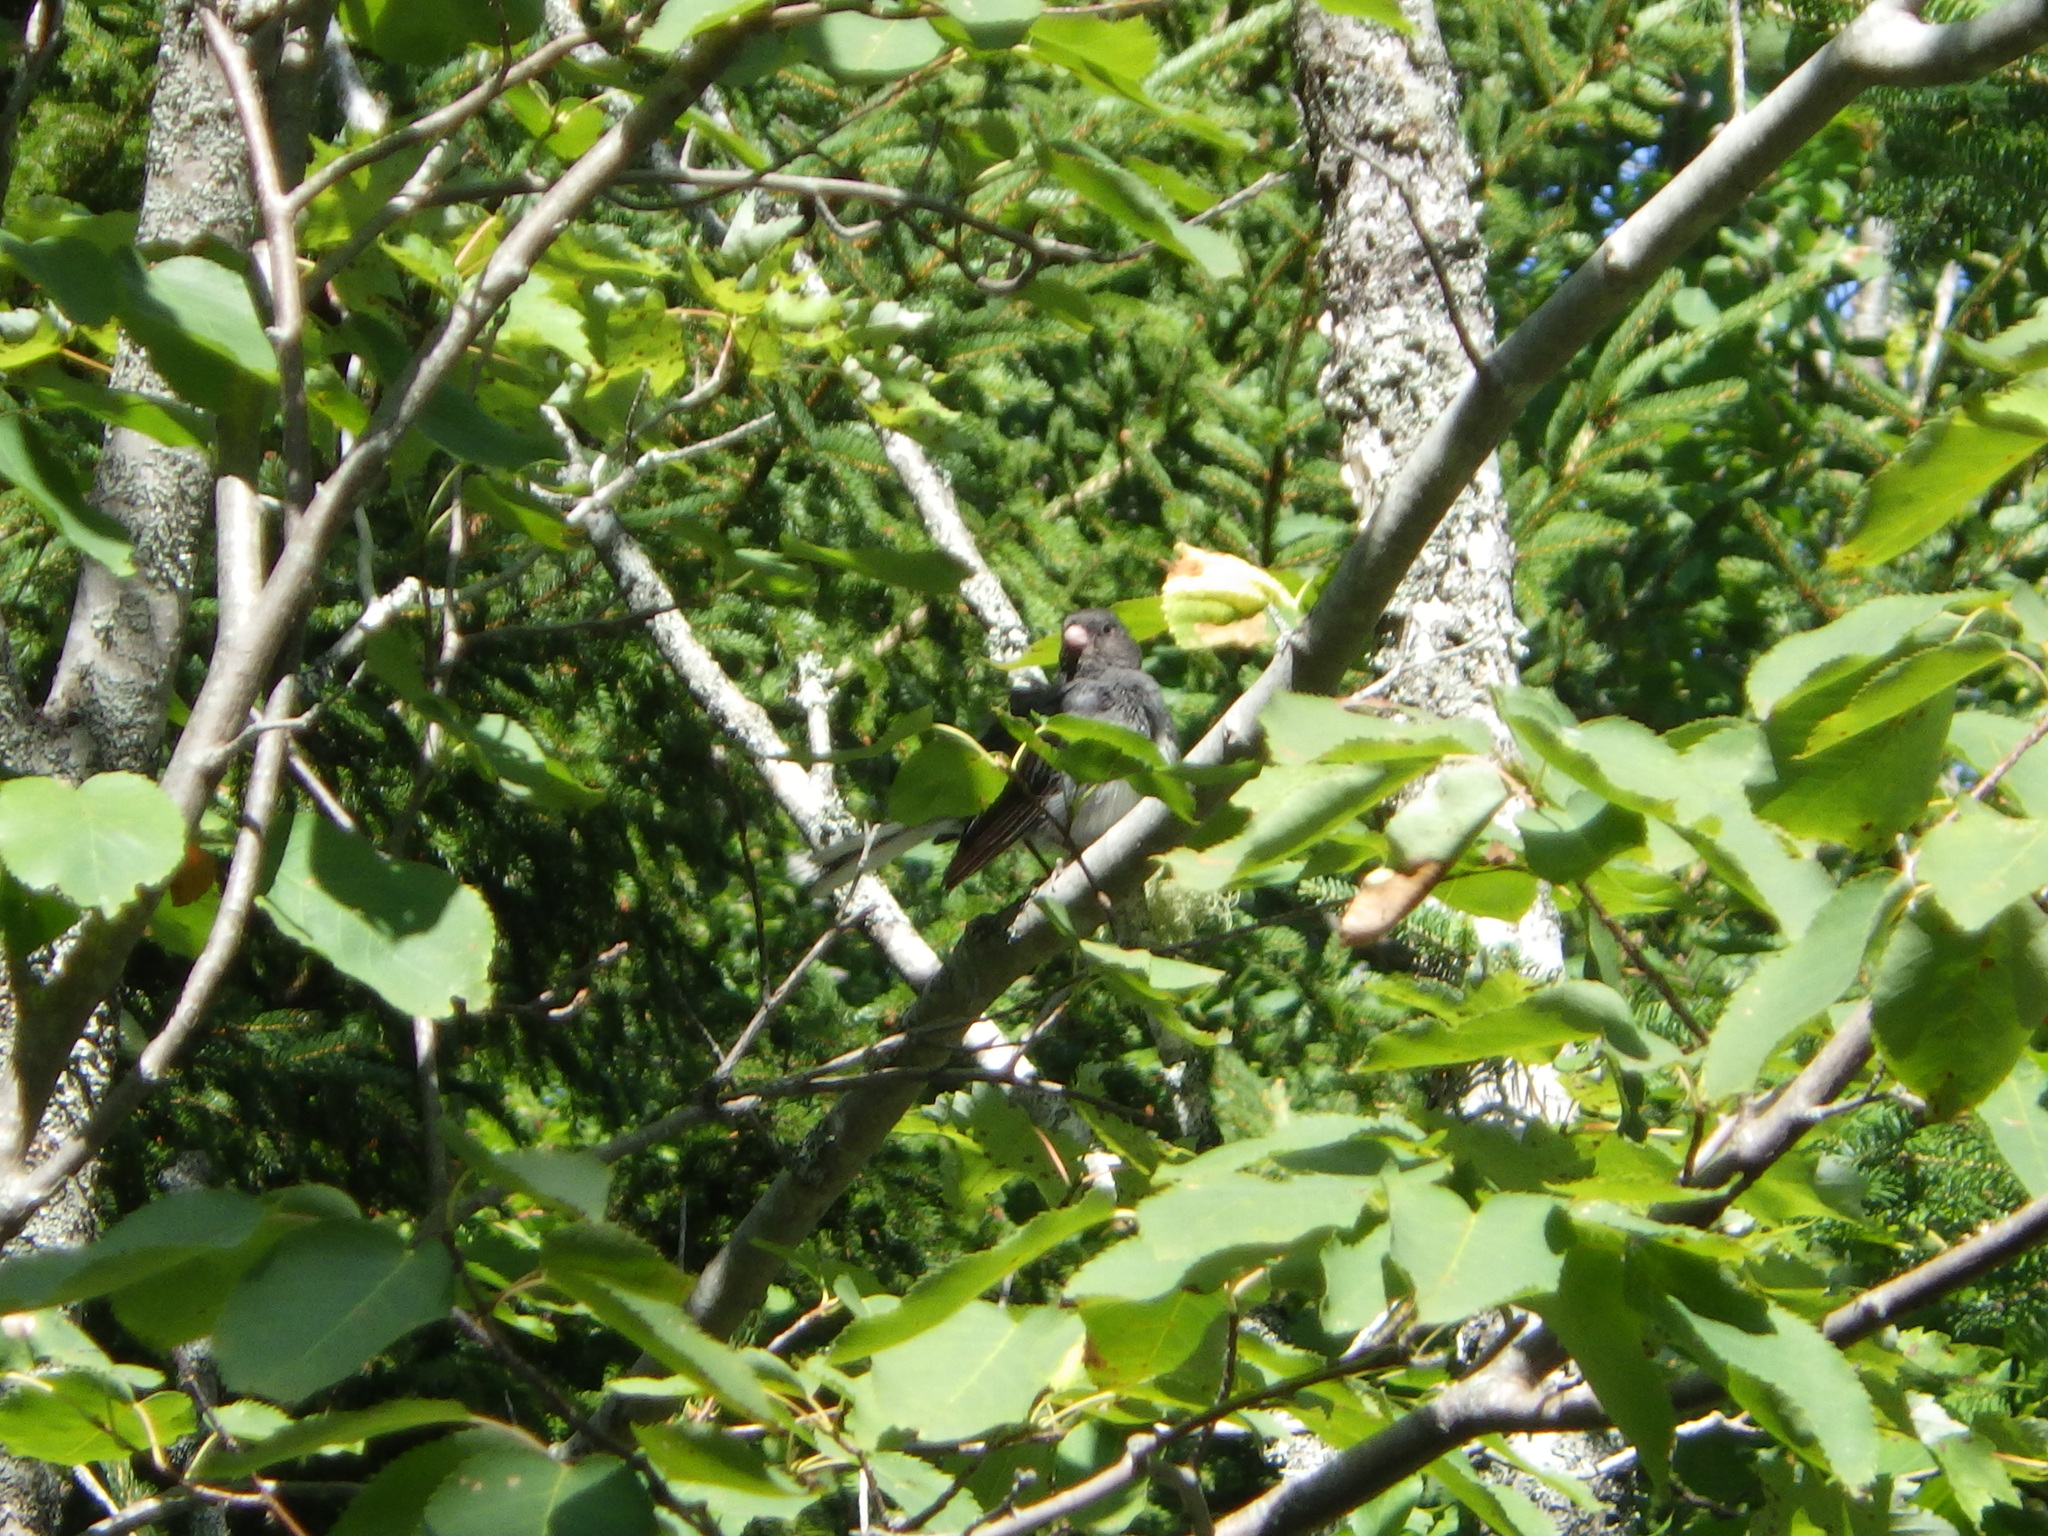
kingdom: Animalia
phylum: Chordata
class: Aves
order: Passeriformes
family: Passerellidae
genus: Junco
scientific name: Junco hyemalis
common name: Dark-eyed junco
